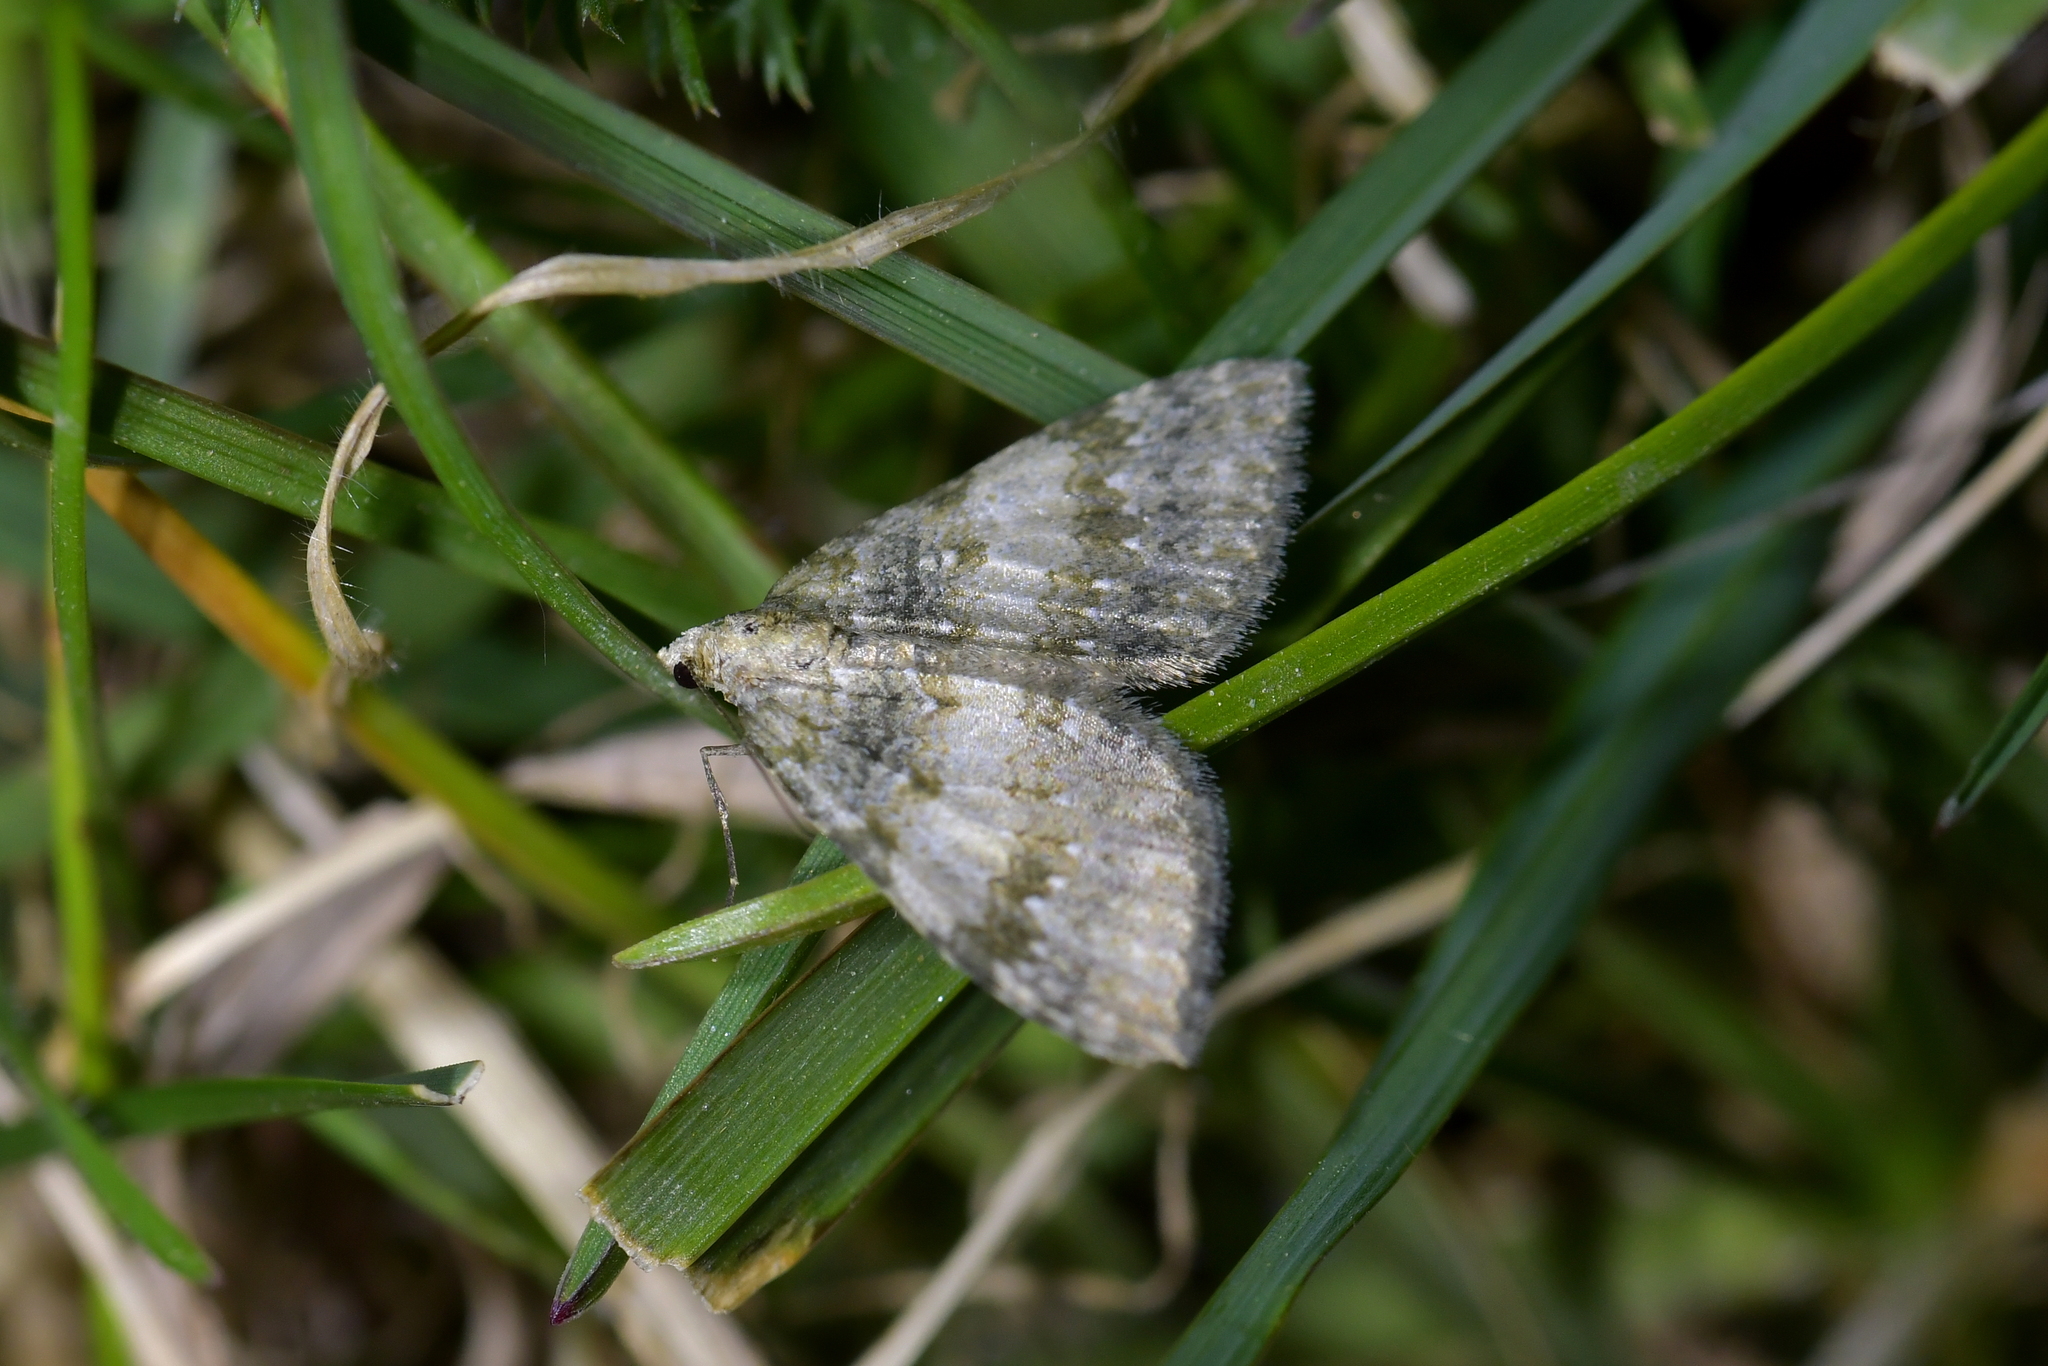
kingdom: Animalia
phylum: Arthropoda
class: Insecta
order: Lepidoptera
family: Geometridae
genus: Helastia
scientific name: Helastia christinae
